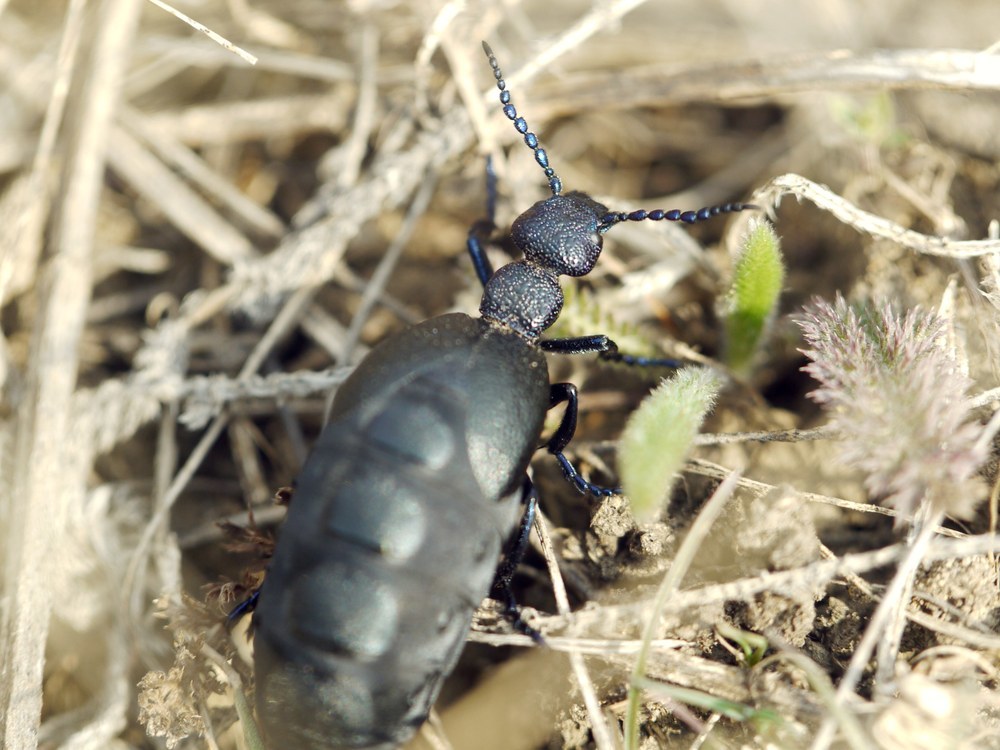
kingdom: Animalia
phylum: Arthropoda
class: Insecta
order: Coleoptera
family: Meloidae
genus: Meloe
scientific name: Meloe proscarabaeus
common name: Black oil-beetle
